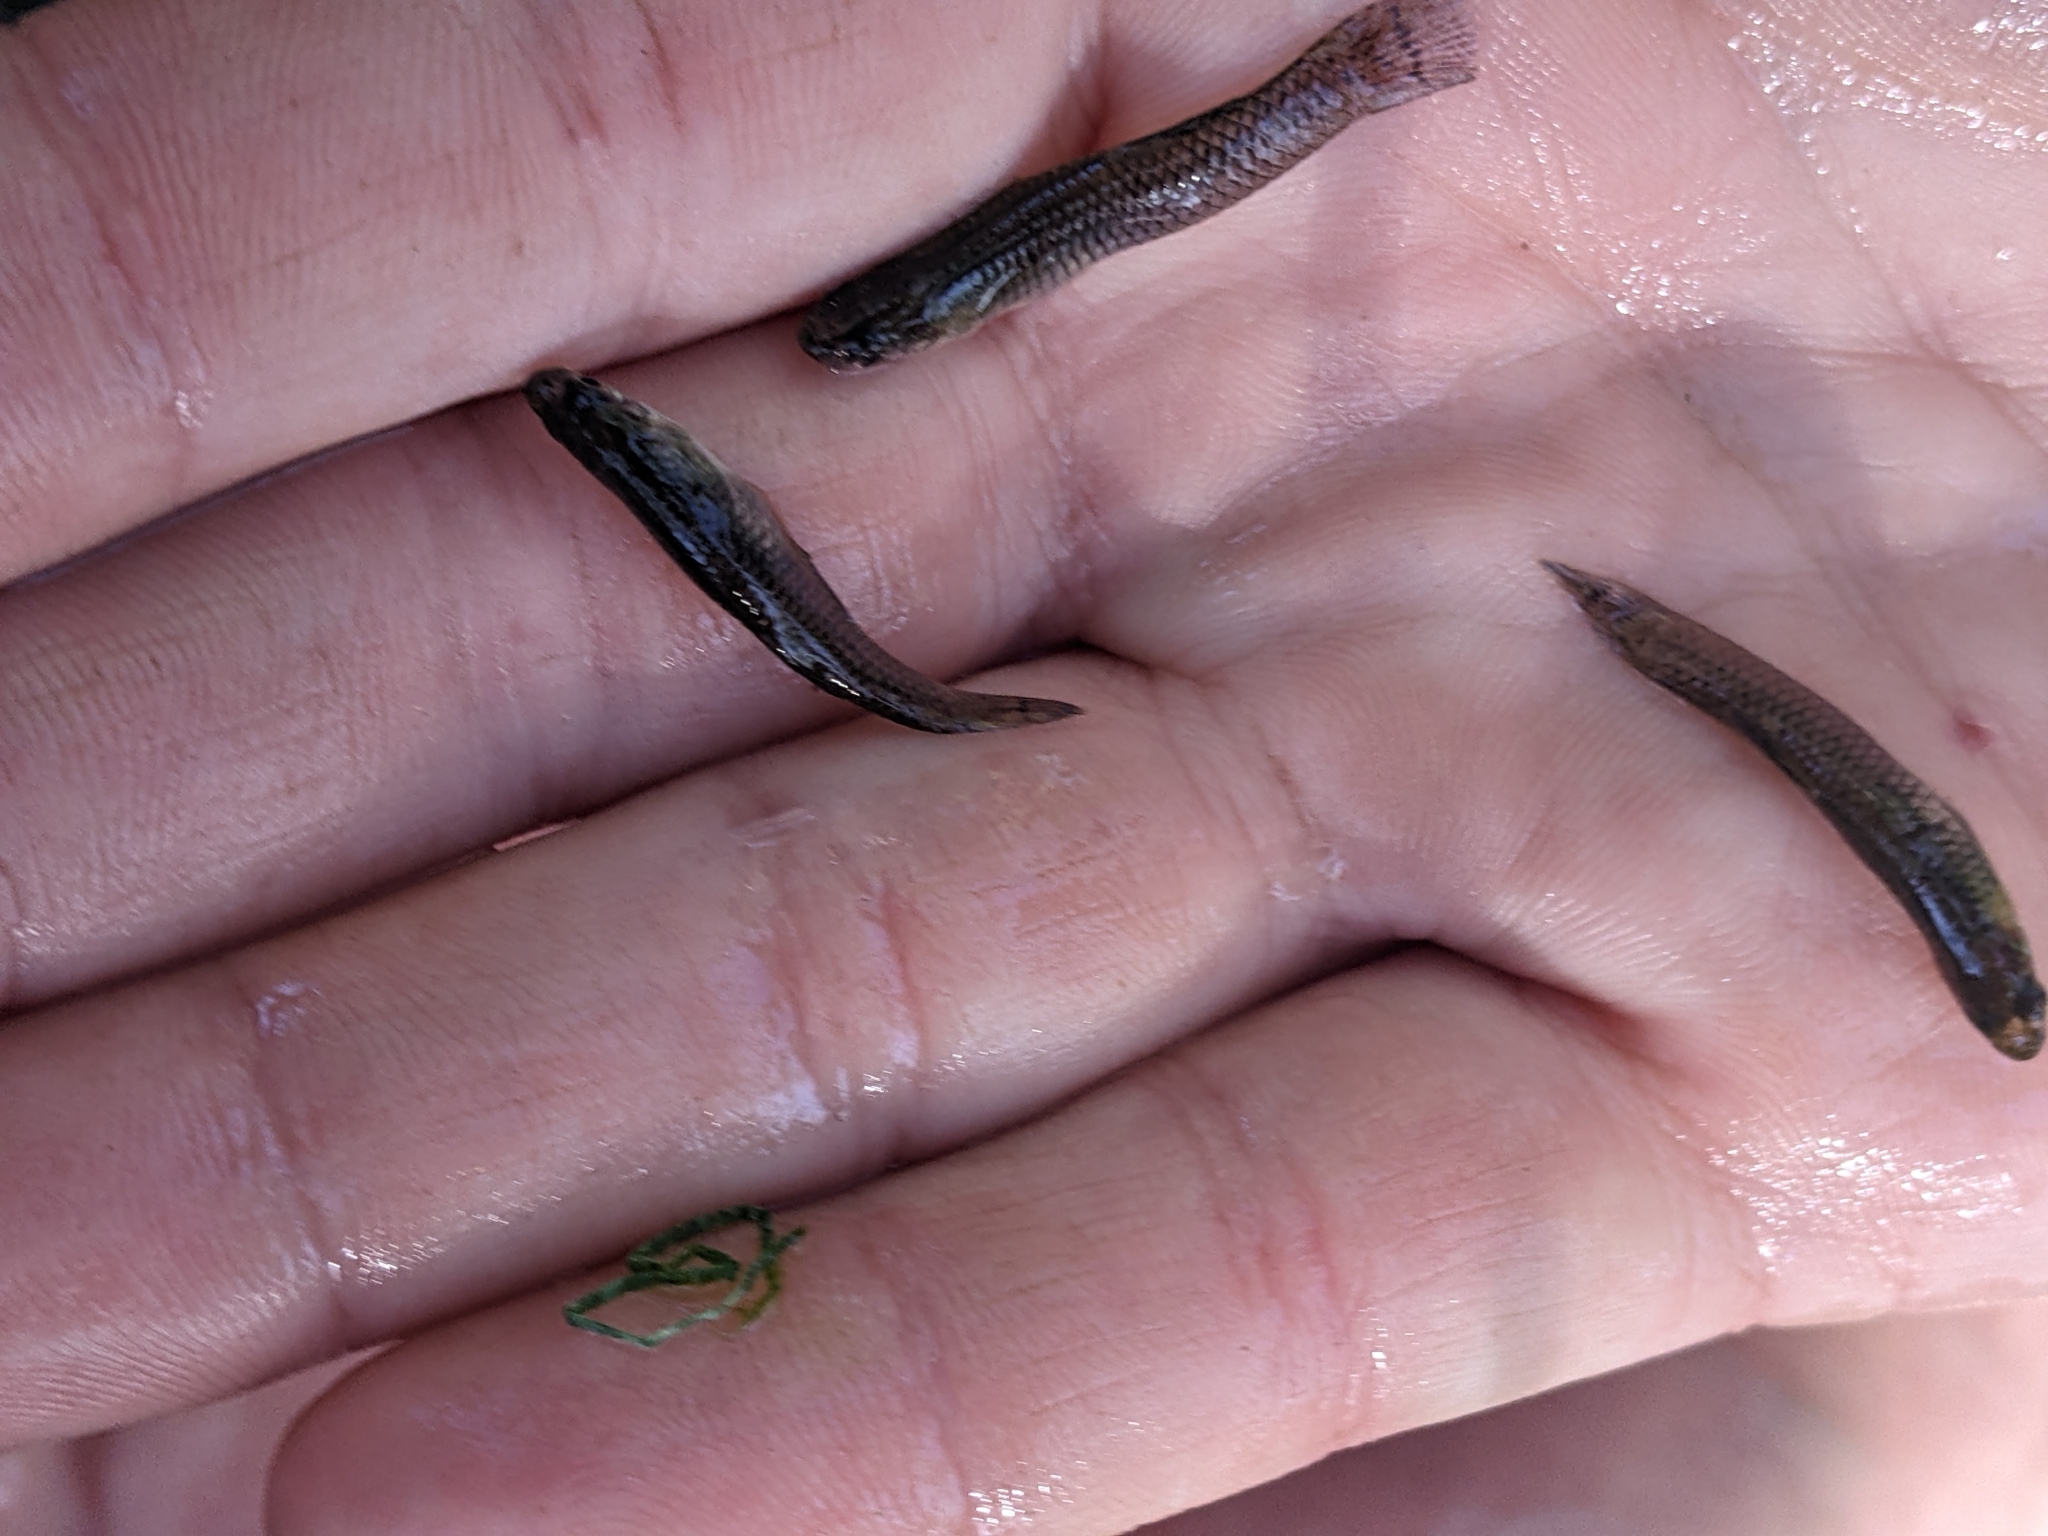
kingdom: Animalia
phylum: Chordata
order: Cyprinodontiformes
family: Poeciliidae
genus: Gambusia
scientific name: Gambusia affinis
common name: Mosquitofish
